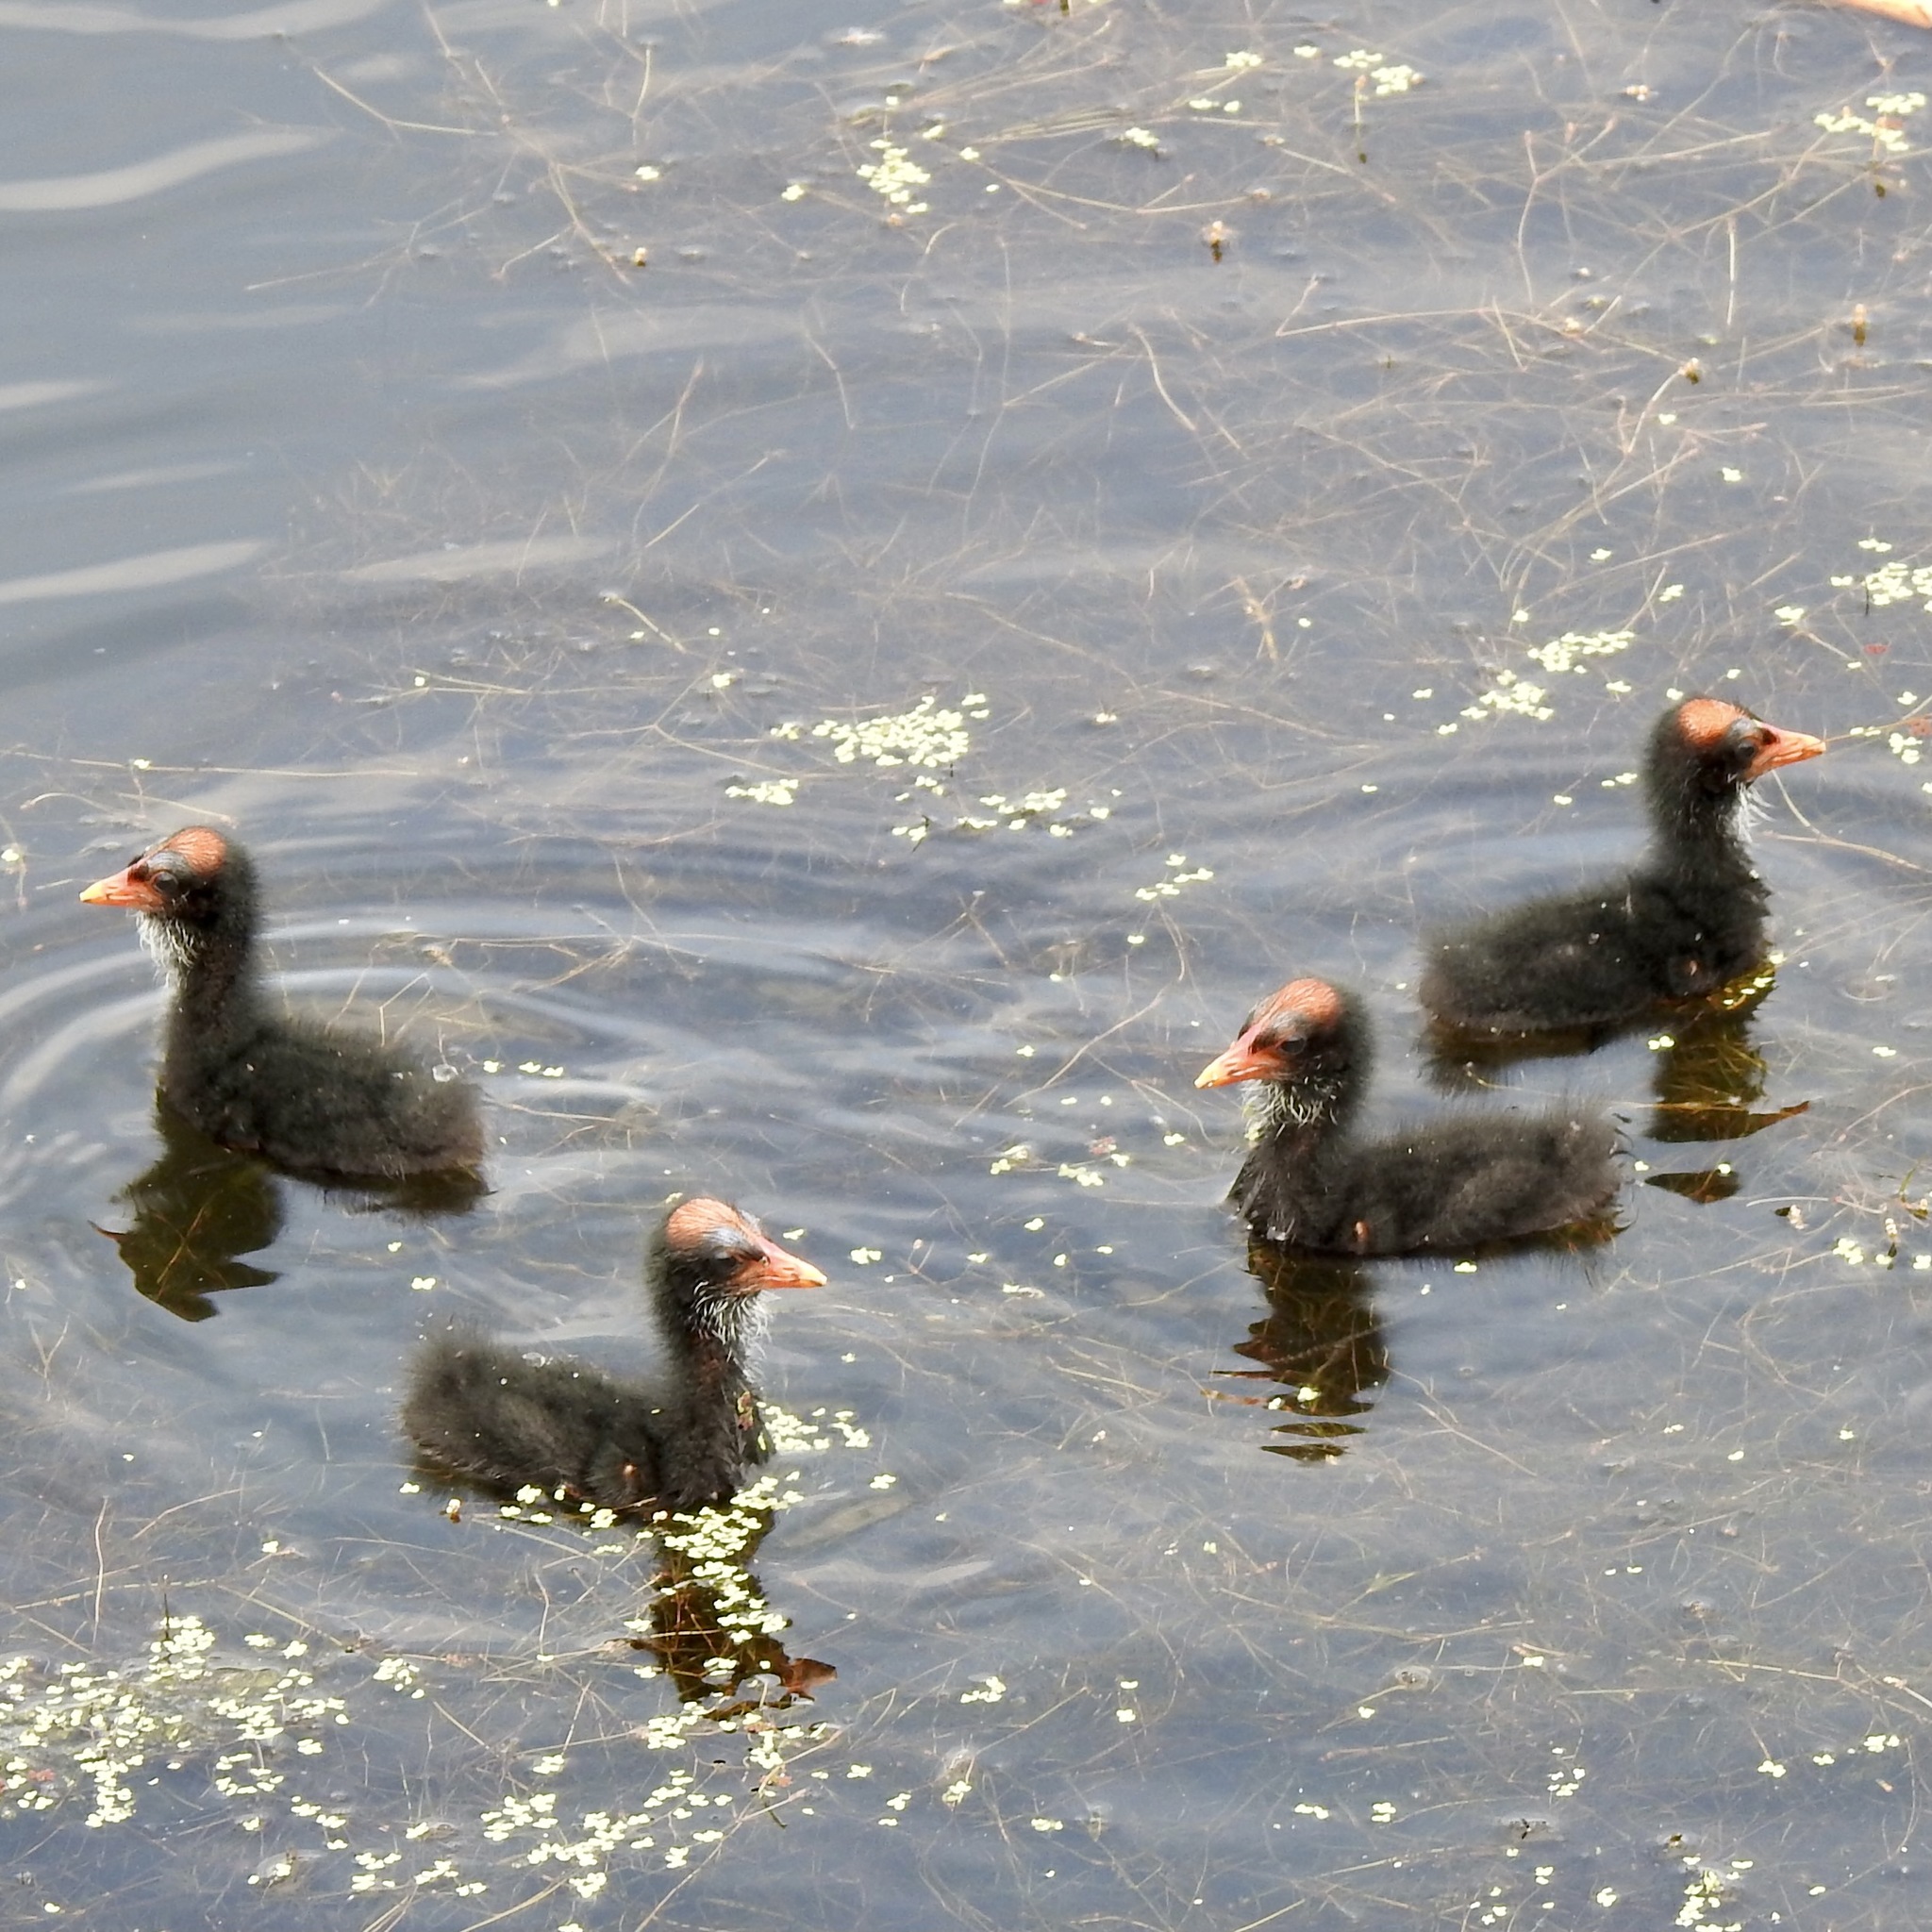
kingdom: Animalia
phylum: Chordata
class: Aves
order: Gruiformes
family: Rallidae
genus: Gallinula
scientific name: Gallinula chloropus
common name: Common moorhen
